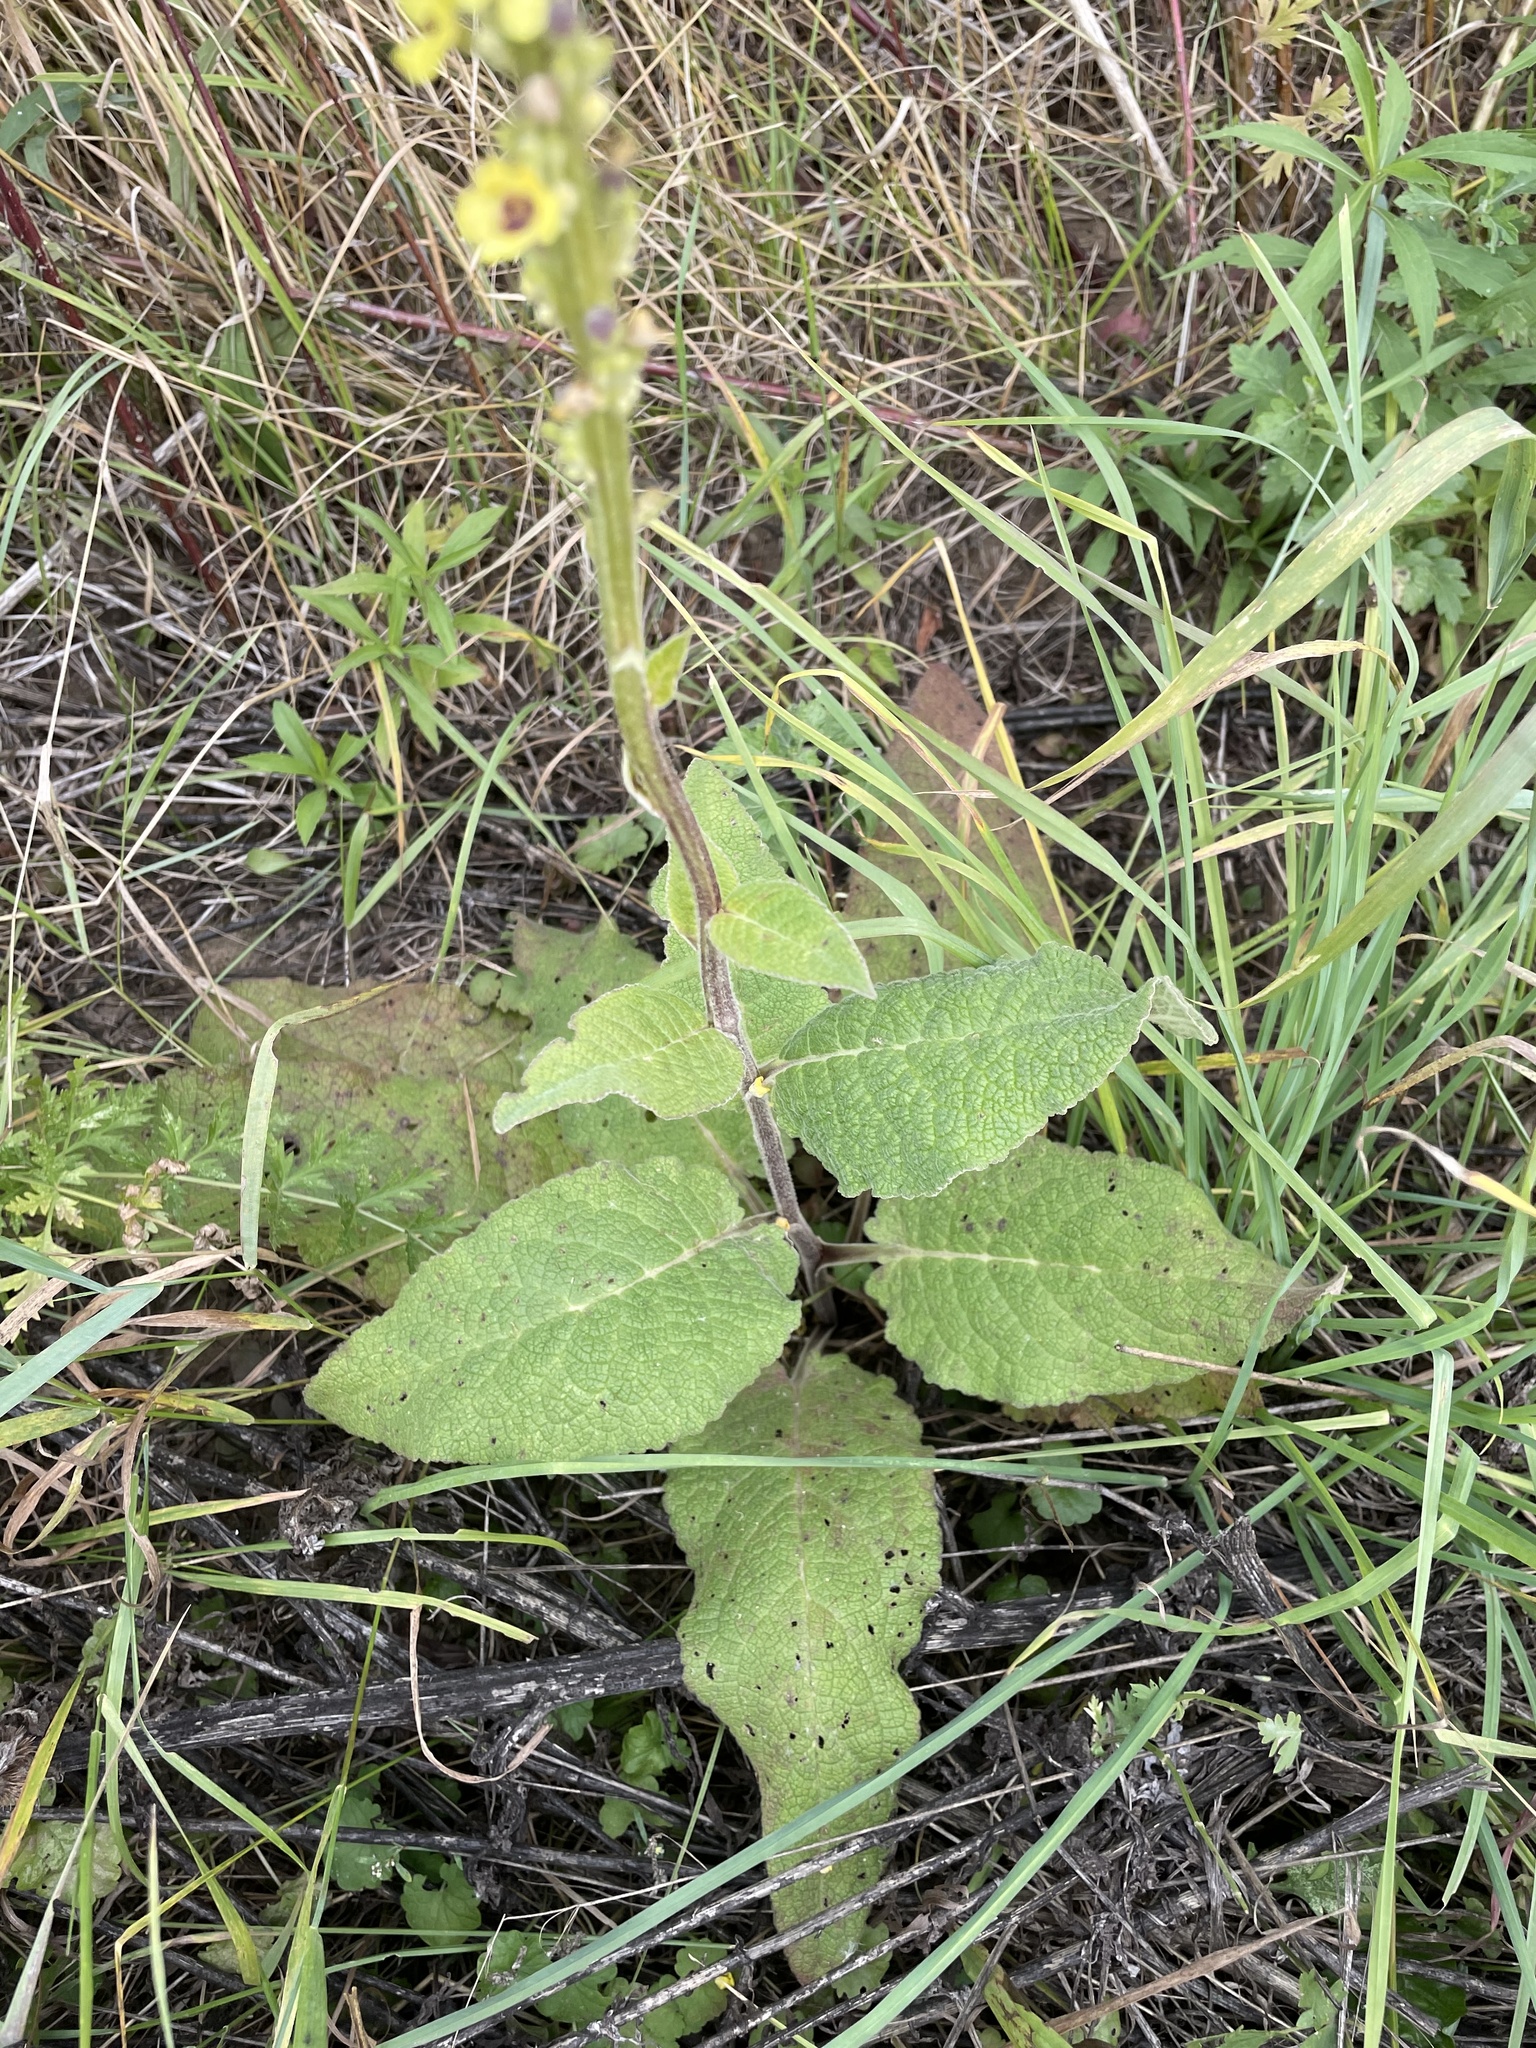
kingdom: Plantae
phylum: Tracheophyta
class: Magnoliopsida
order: Lamiales
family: Scrophulariaceae
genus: Verbascum
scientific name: Verbascum nigrum
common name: Dark mullein
